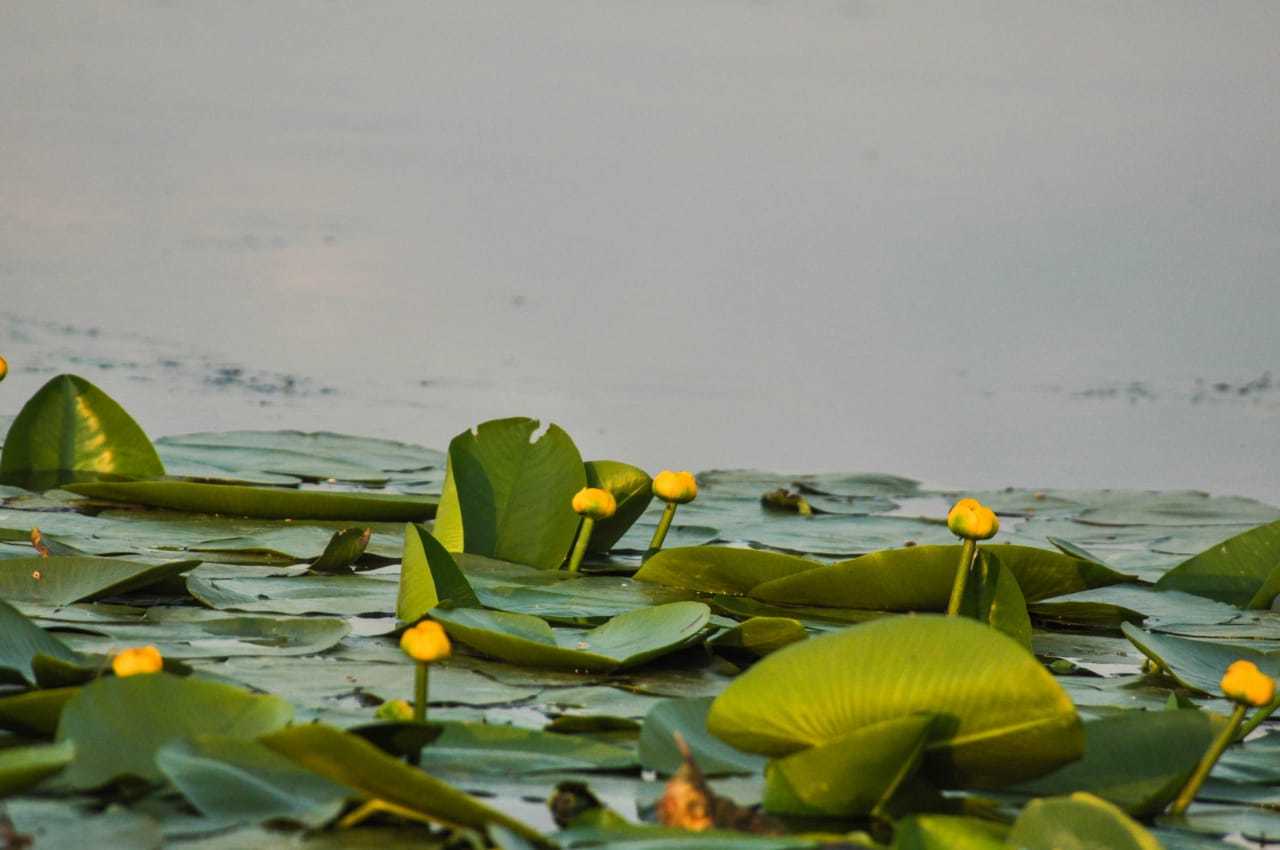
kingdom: Plantae
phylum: Tracheophyta
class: Magnoliopsida
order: Nymphaeales
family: Nymphaeaceae
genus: Nuphar
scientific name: Nuphar lutea
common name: Yellow water-lily
